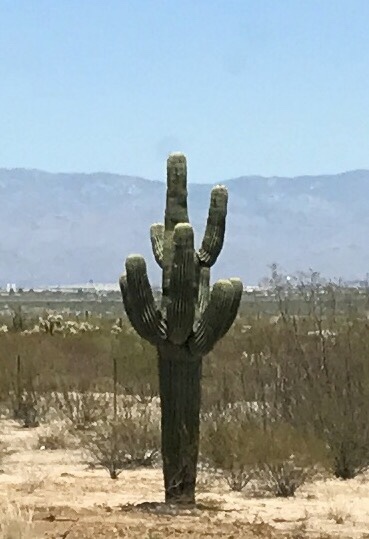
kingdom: Plantae
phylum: Tracheophyta
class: Magnoliopsida
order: Caryophyllales
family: Cactaceae
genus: Carnegiea
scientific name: Carnegiea gigantea
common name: Saguaro
